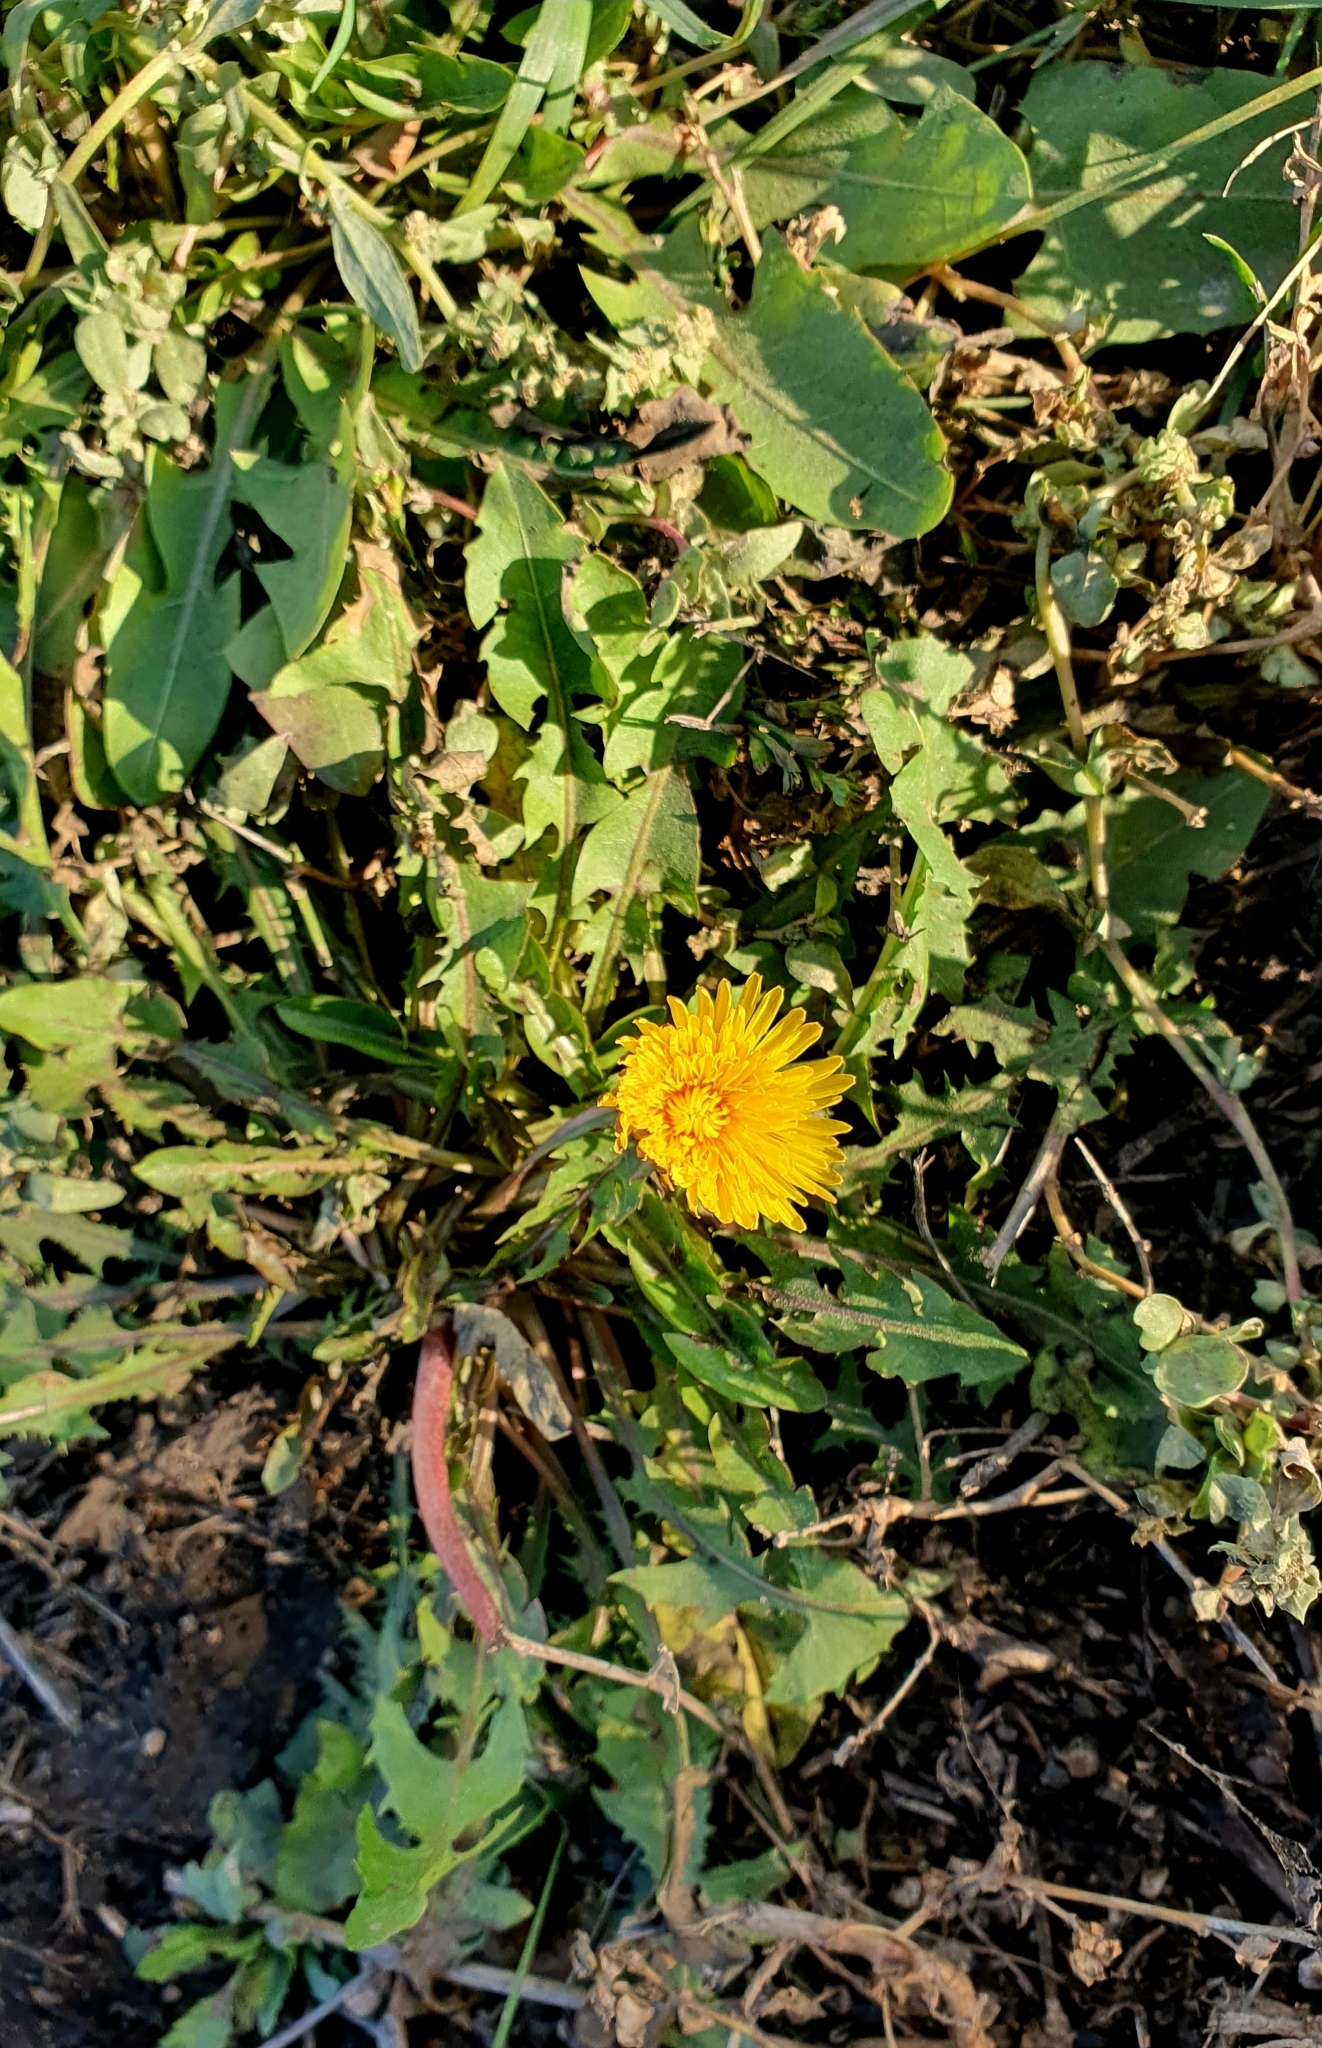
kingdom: Plantae
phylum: Tracheophyta
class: Magnoliopsida
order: Asterales
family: Asteraceae
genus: Taraxacum
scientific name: Taraxacum officinale
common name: Common dandelion
